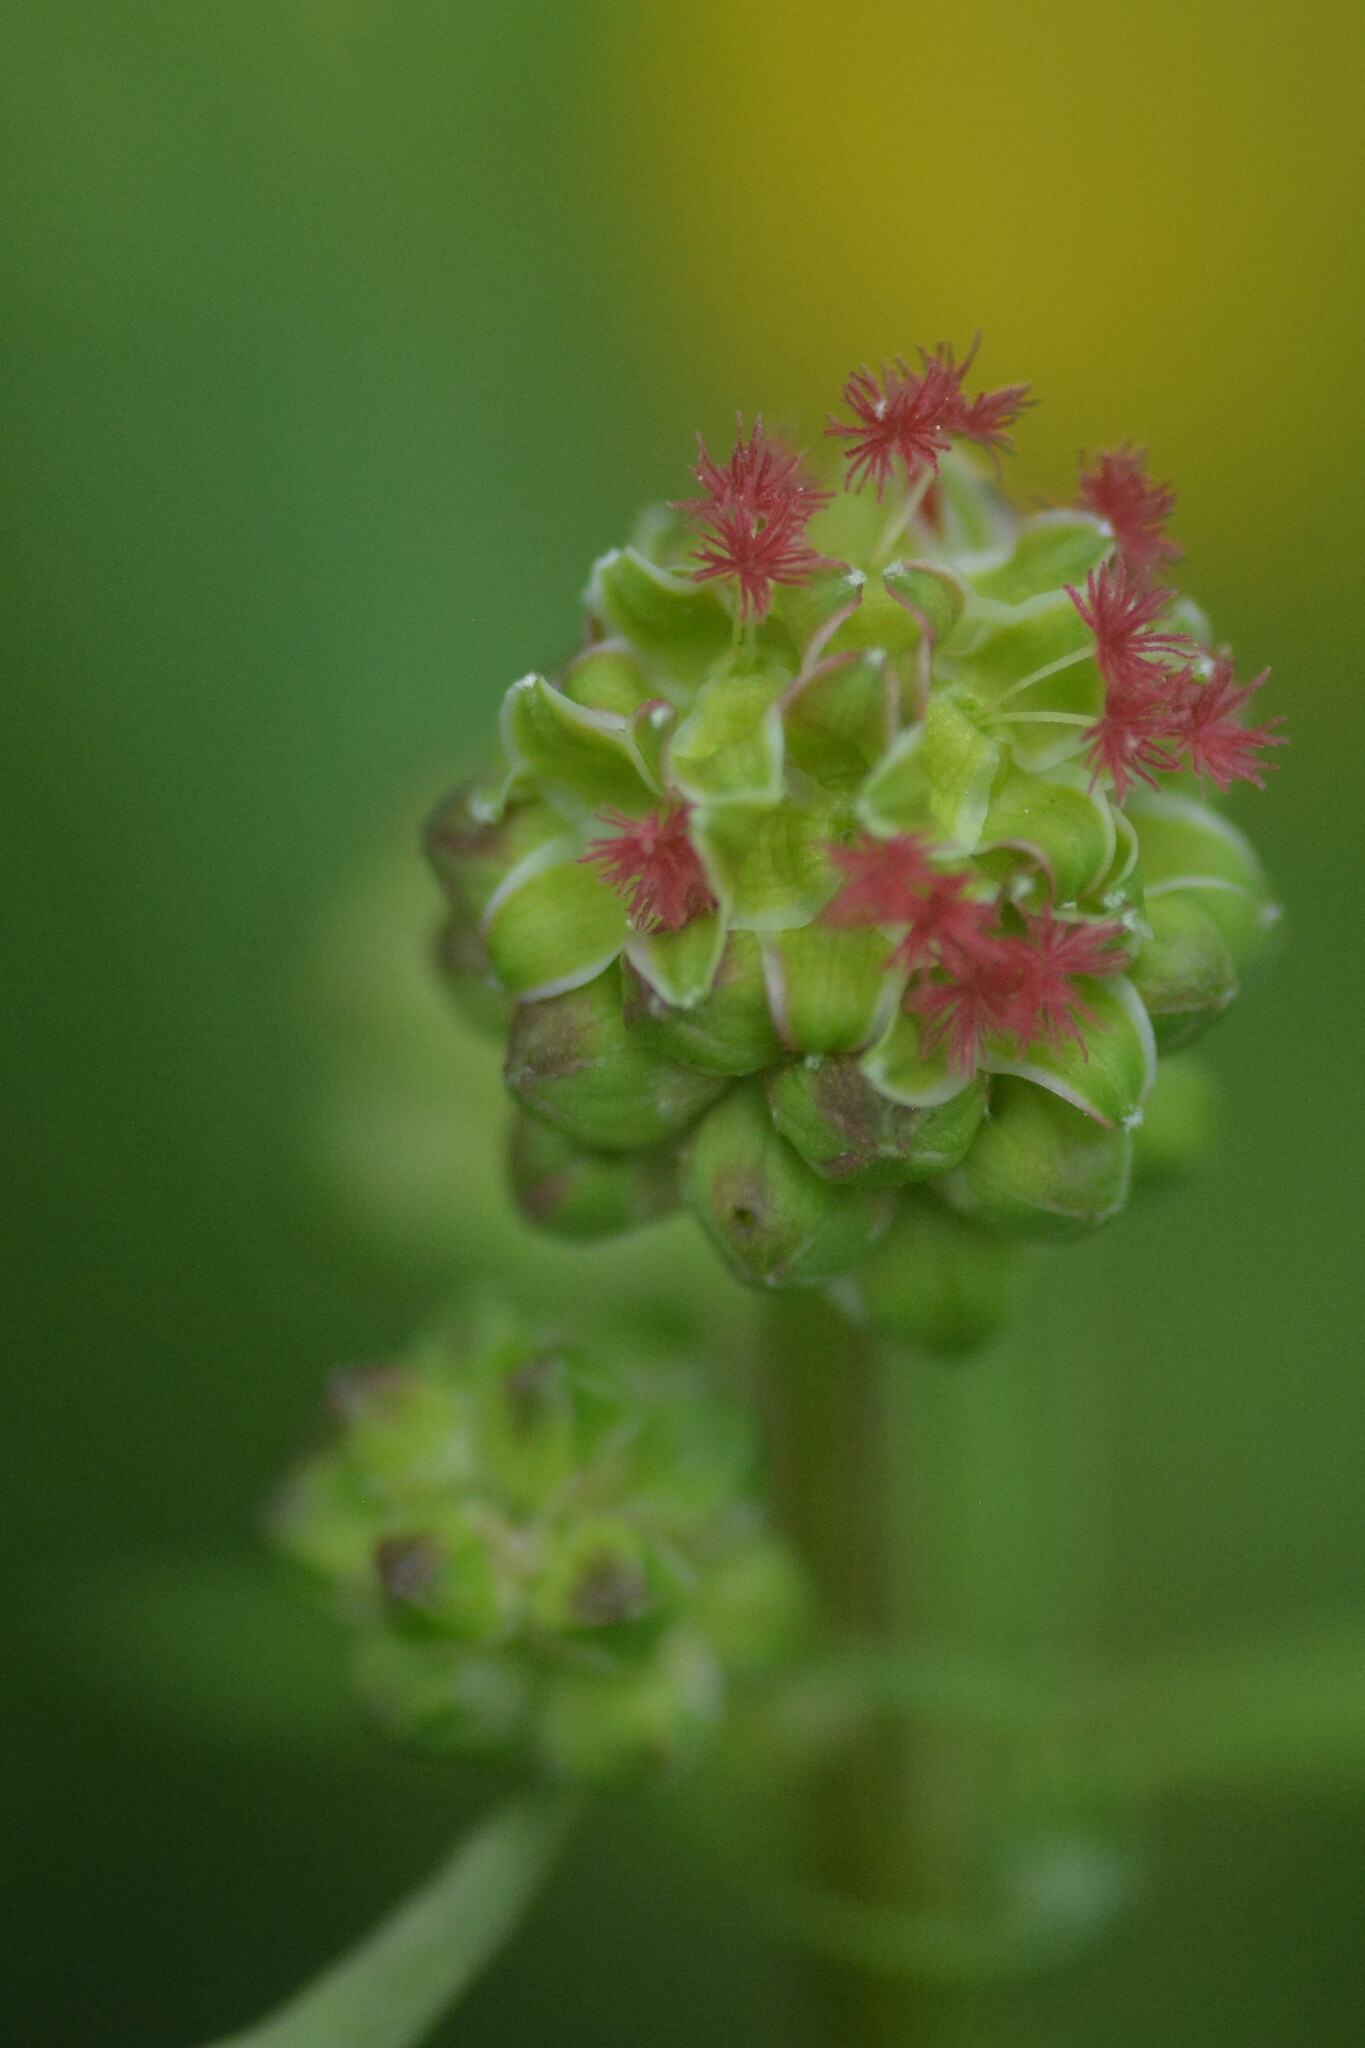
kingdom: Plantae
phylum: Tracheophyta
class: Magnoliopsida
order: Rosales
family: Rosaceae
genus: Poterium
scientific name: Poterium sanguisorba
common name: Salad burnet
